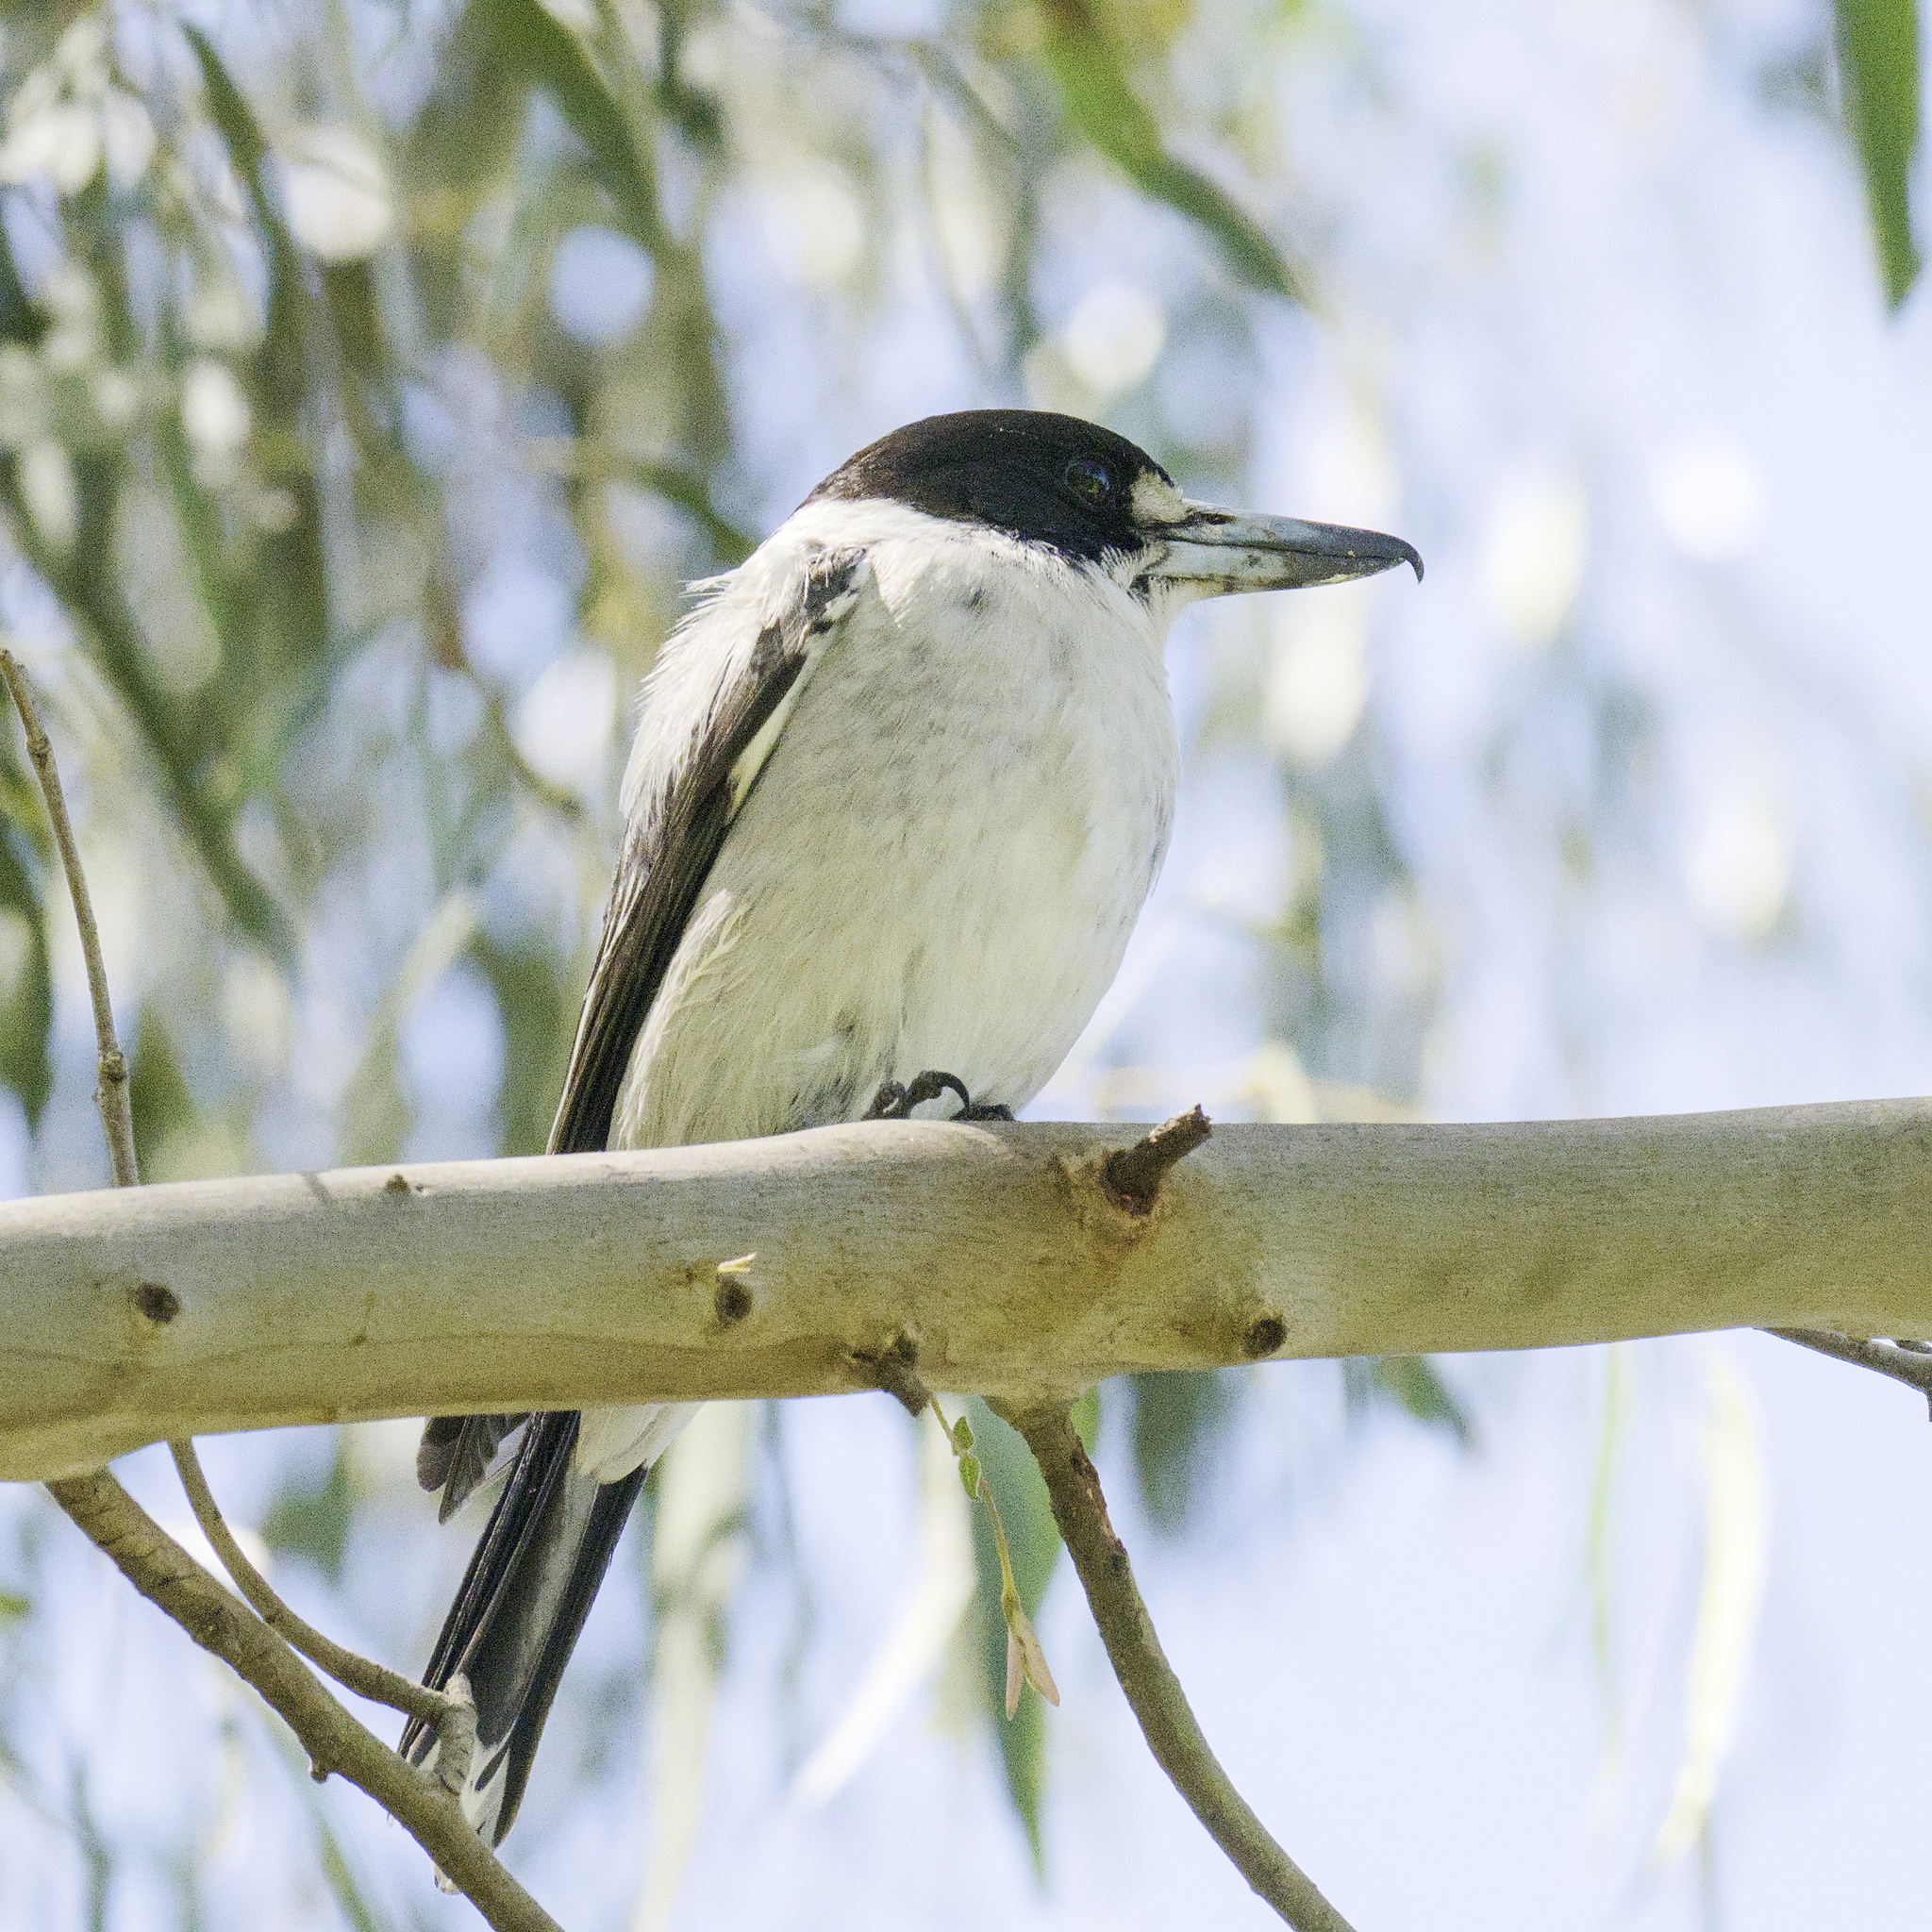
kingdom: Animalia
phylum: Chordata
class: Aves
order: Passeriformes
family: Cracticidae
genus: Cracticus
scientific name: Cracticus torquatus
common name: Grey butcherbird
